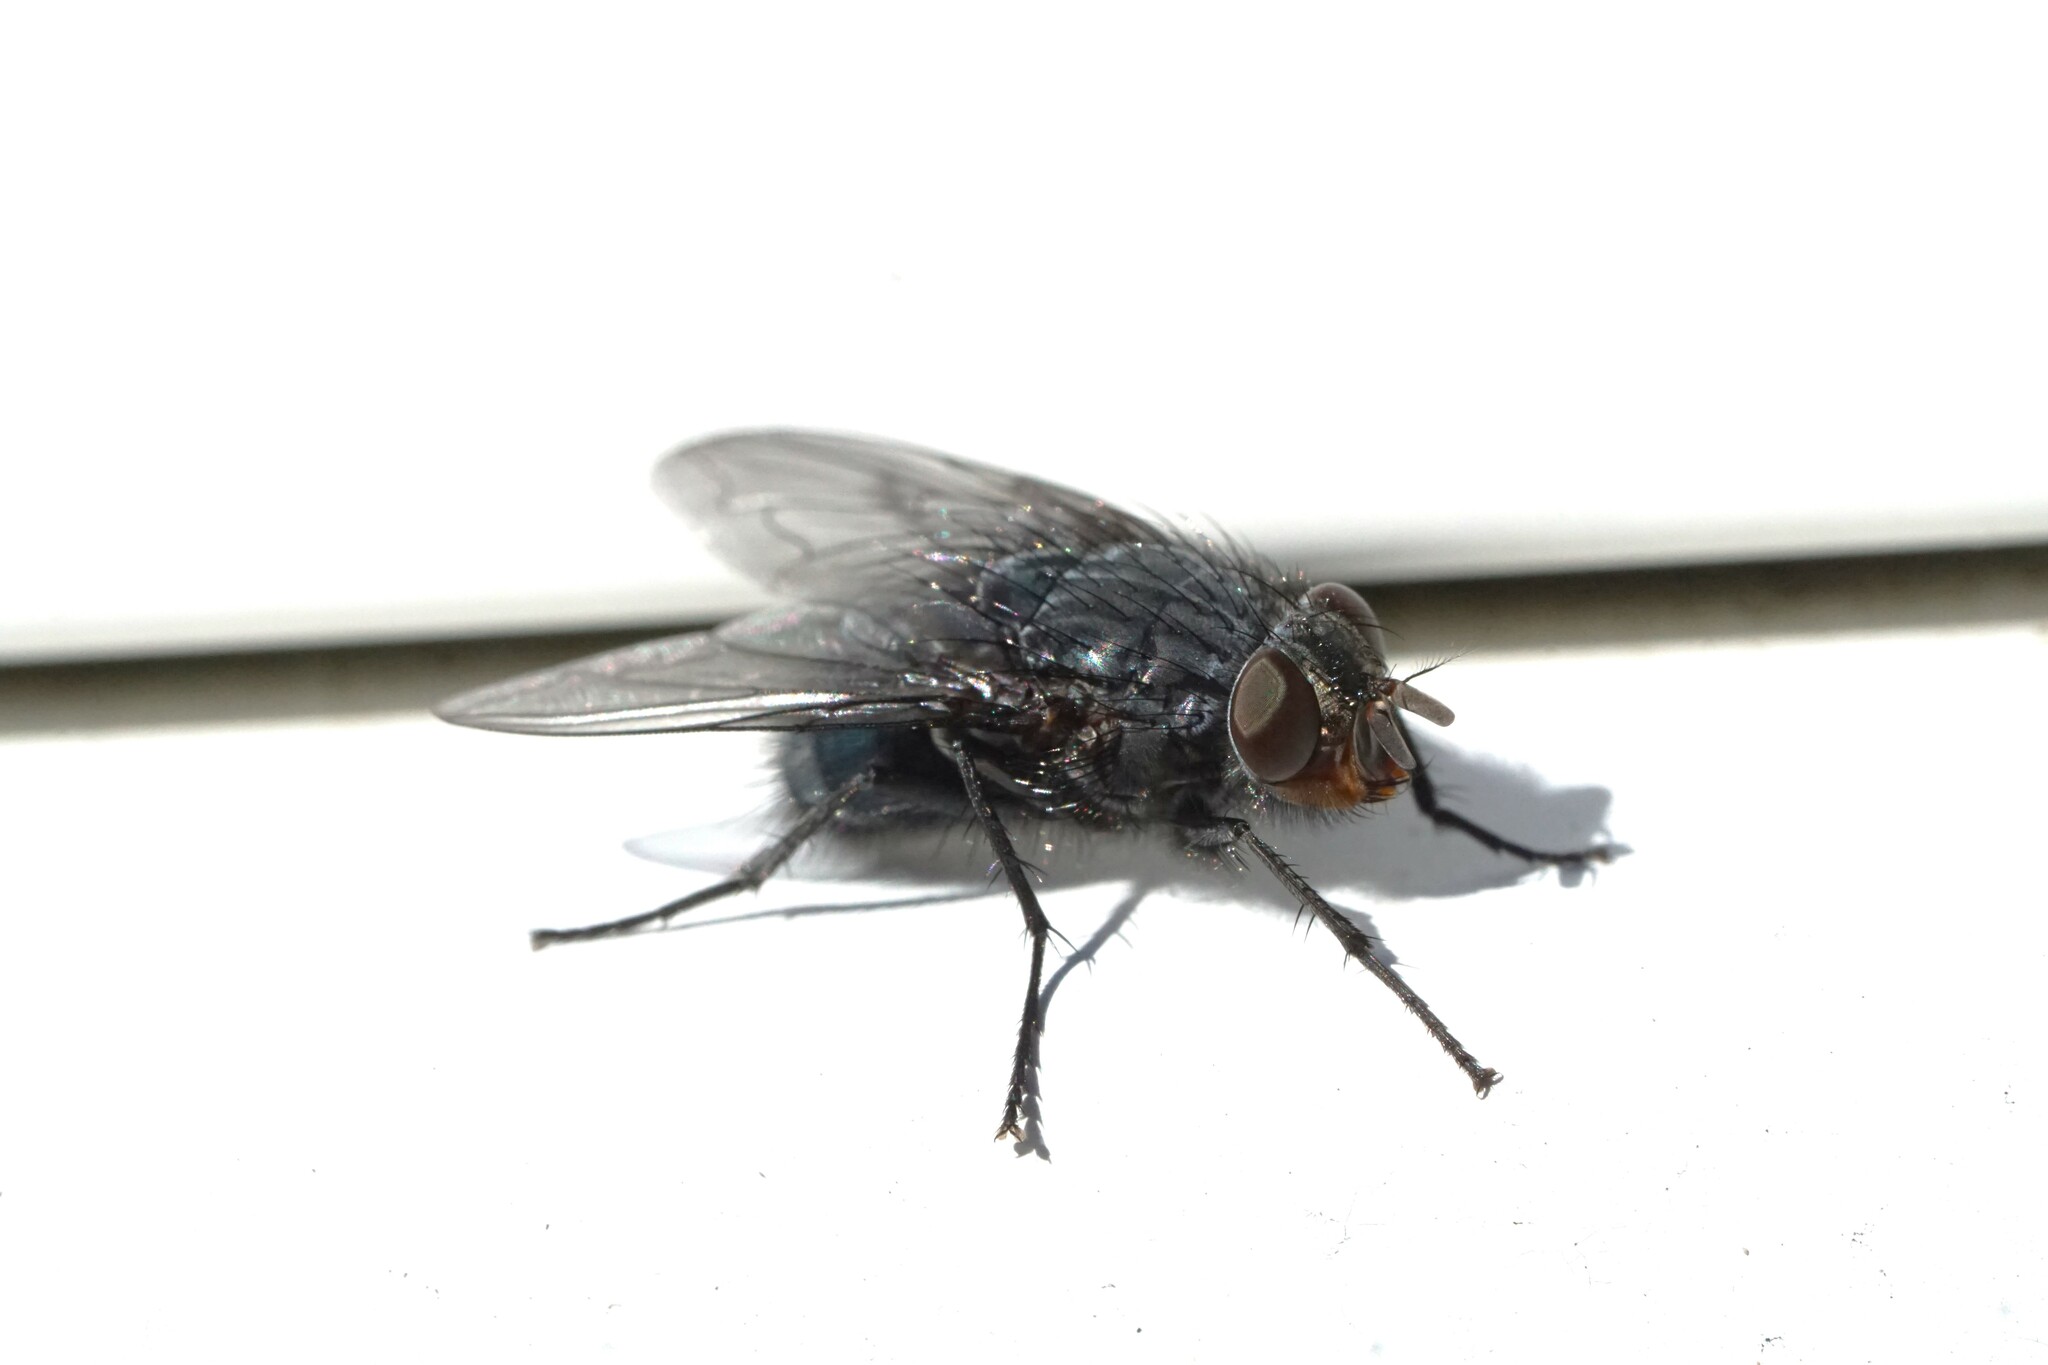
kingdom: Animalia
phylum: Arthropoda
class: Insecta
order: Diptera
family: Calliphoridae
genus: Calliphora
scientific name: Calliphora vicina
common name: Common blow flie
